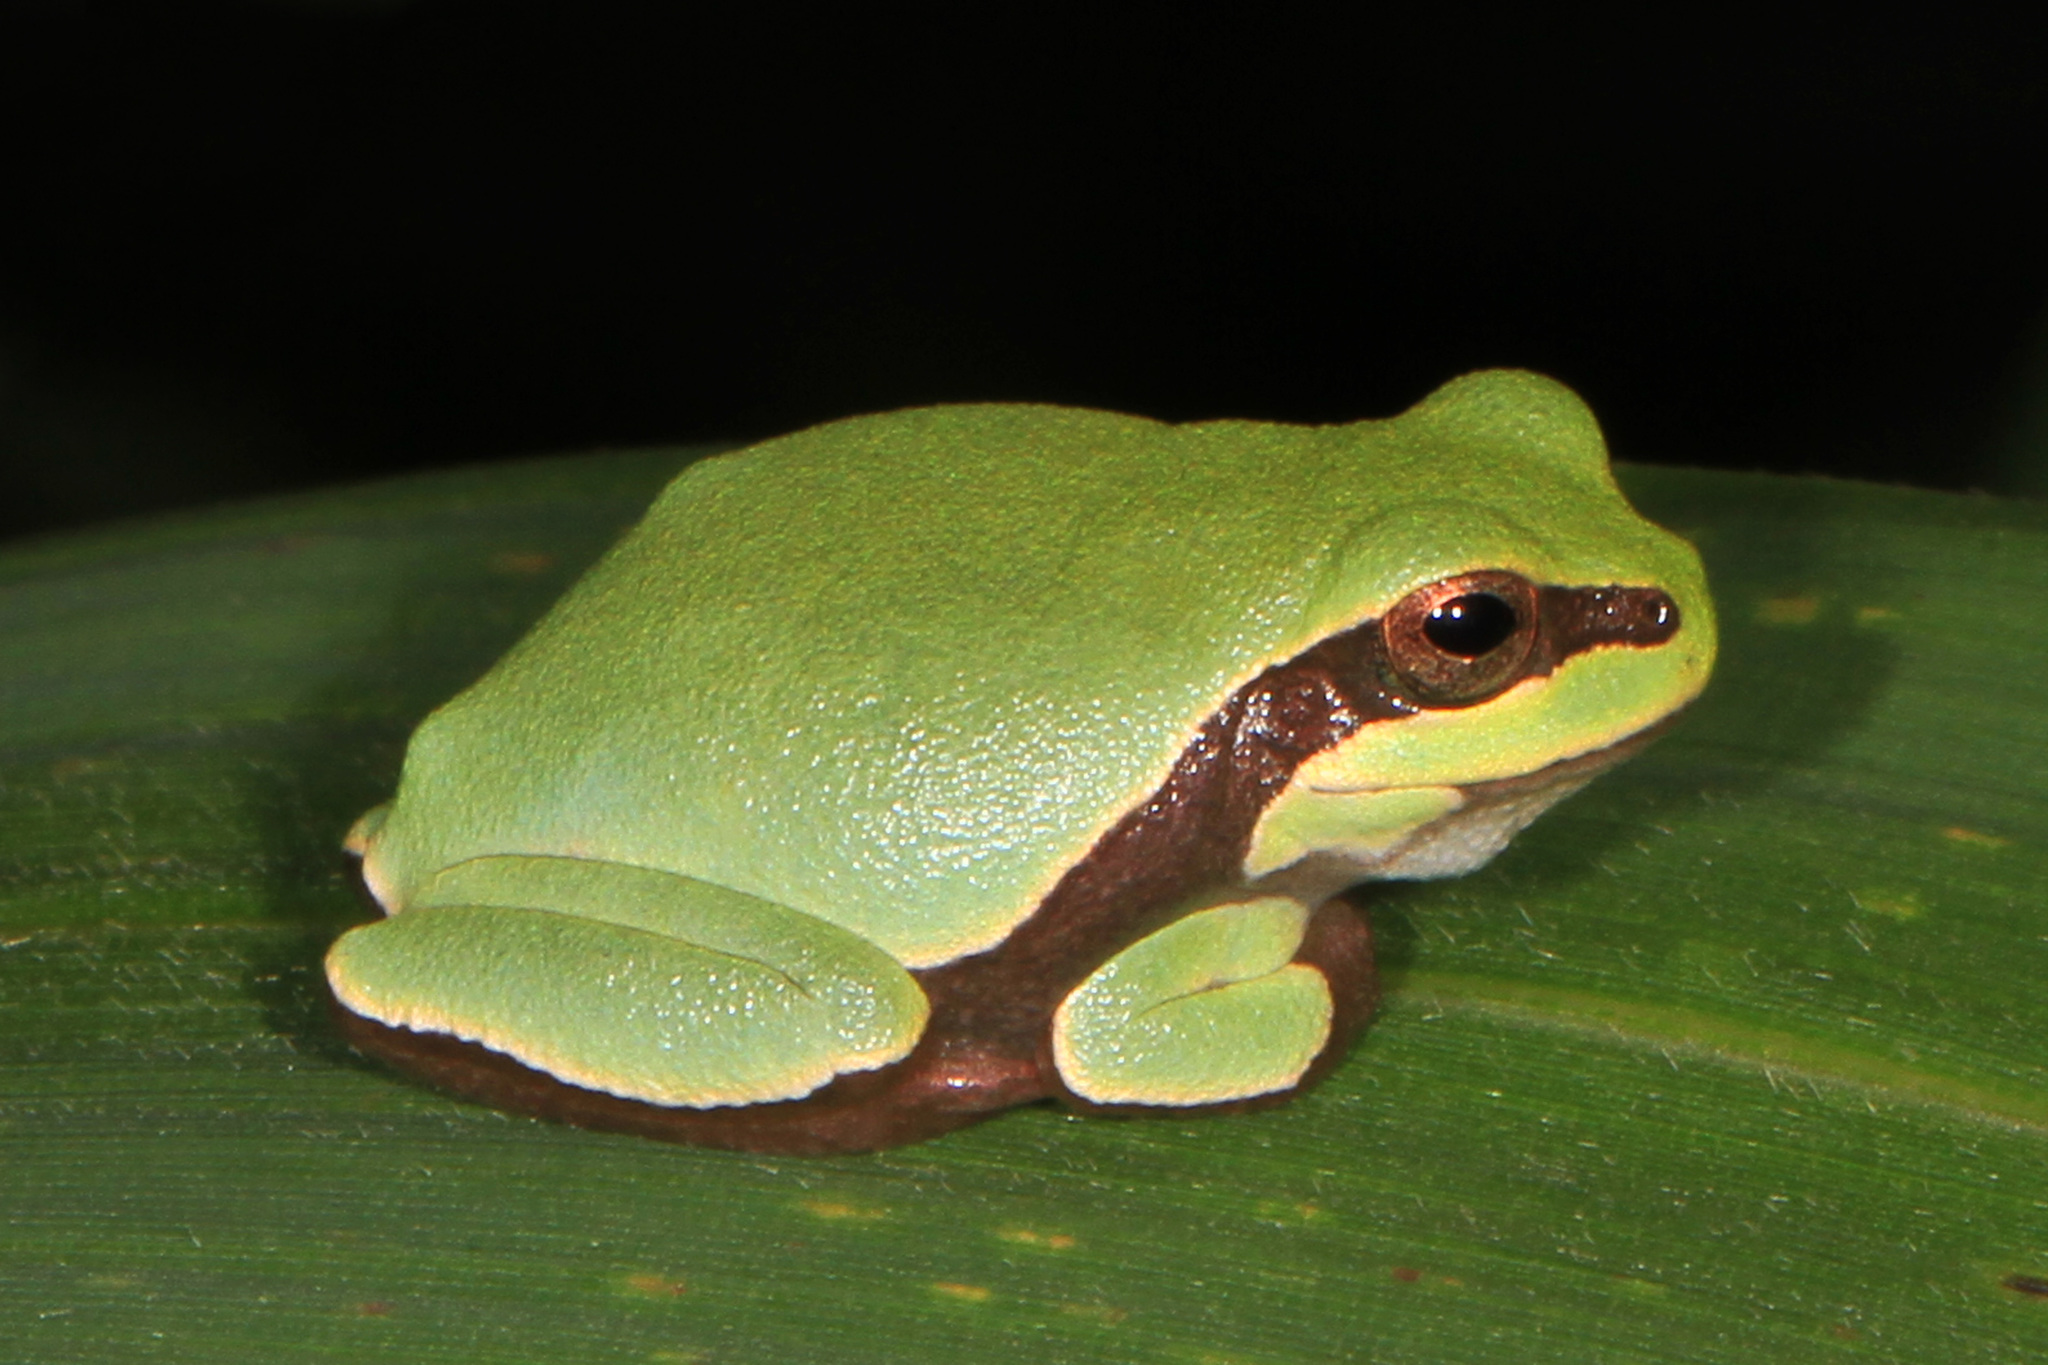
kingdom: Animalia
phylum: Chordata
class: Amphibia
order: Anura
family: Hylidae
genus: Dryophytes
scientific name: Dryophytes andersonii
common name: Pine barrens treefrog
